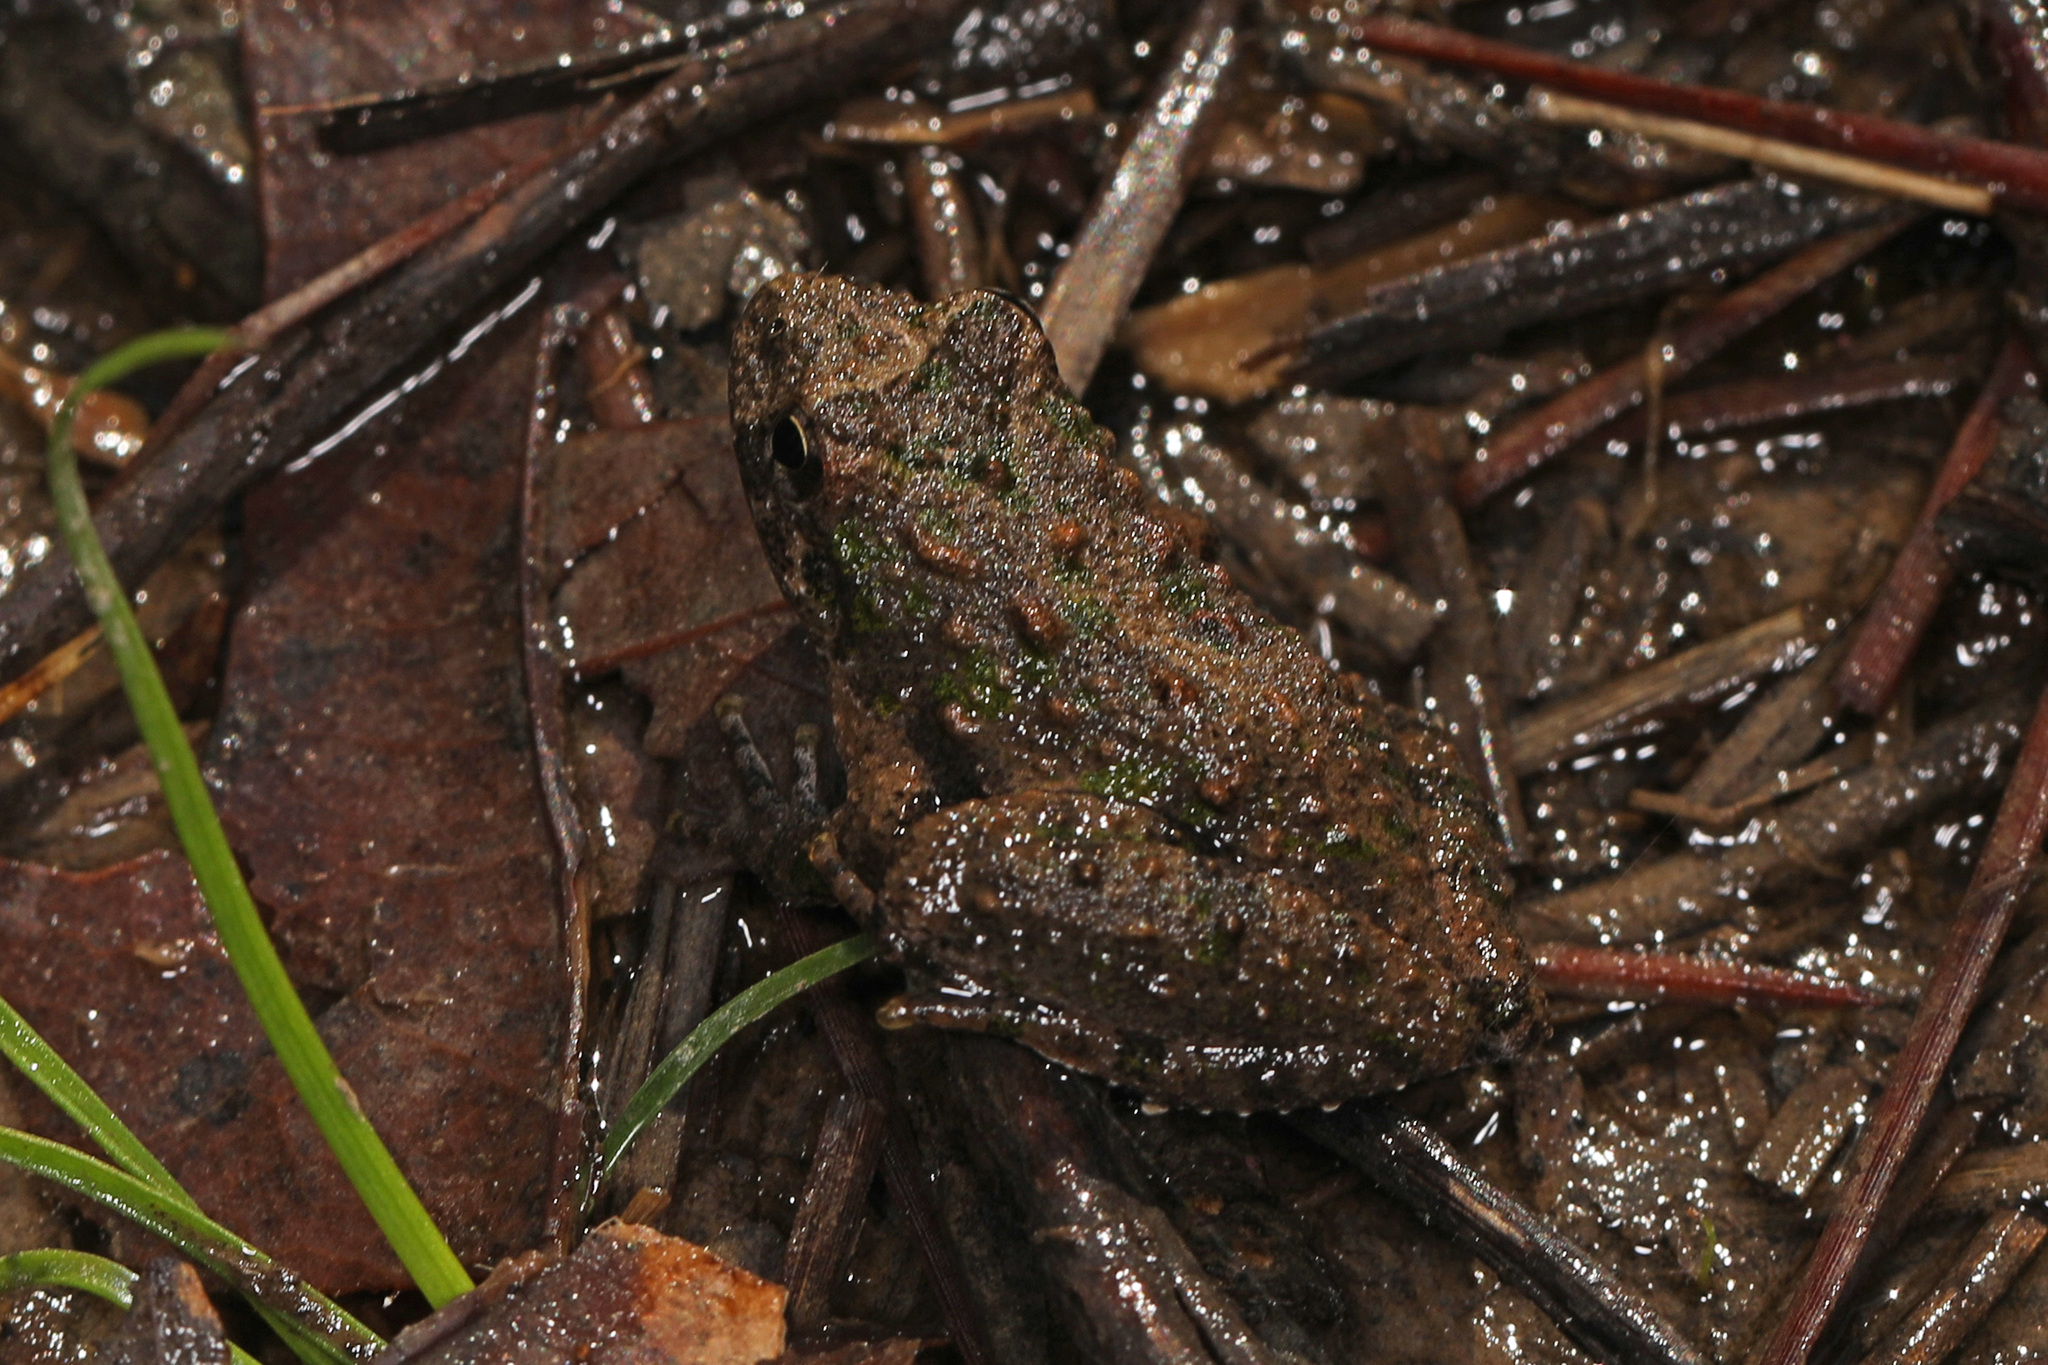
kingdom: Animalia
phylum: Chordata
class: Amphibia
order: Anura
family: Hylidae
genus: Acris
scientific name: Acris crepitans
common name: Northern cricket frog
